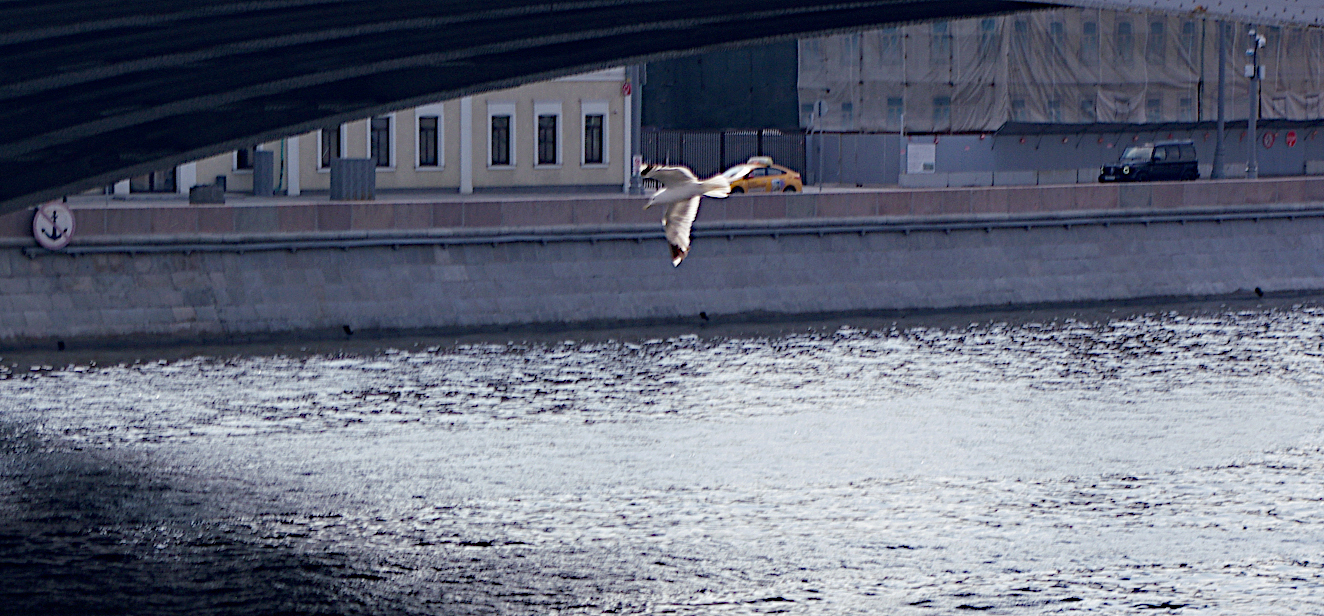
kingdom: Animalia
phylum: Chordata
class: Aves
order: Charadriiformes
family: Laridae
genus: Larus
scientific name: Larus canus
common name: Mew gull
